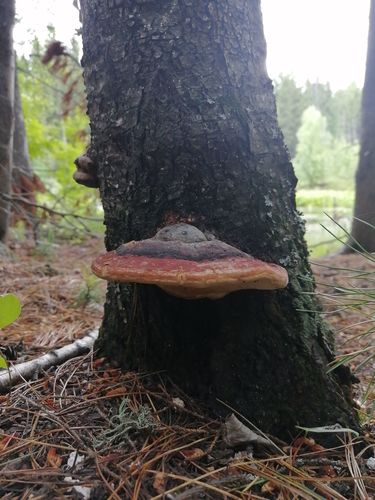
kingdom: Fungi
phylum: Basidiomycota
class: Agaricomycetes
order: Polyporales
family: Fomitopsidaceae
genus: Fomitopsis
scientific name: Fomitopsis pinicola
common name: Red-belted bracket
